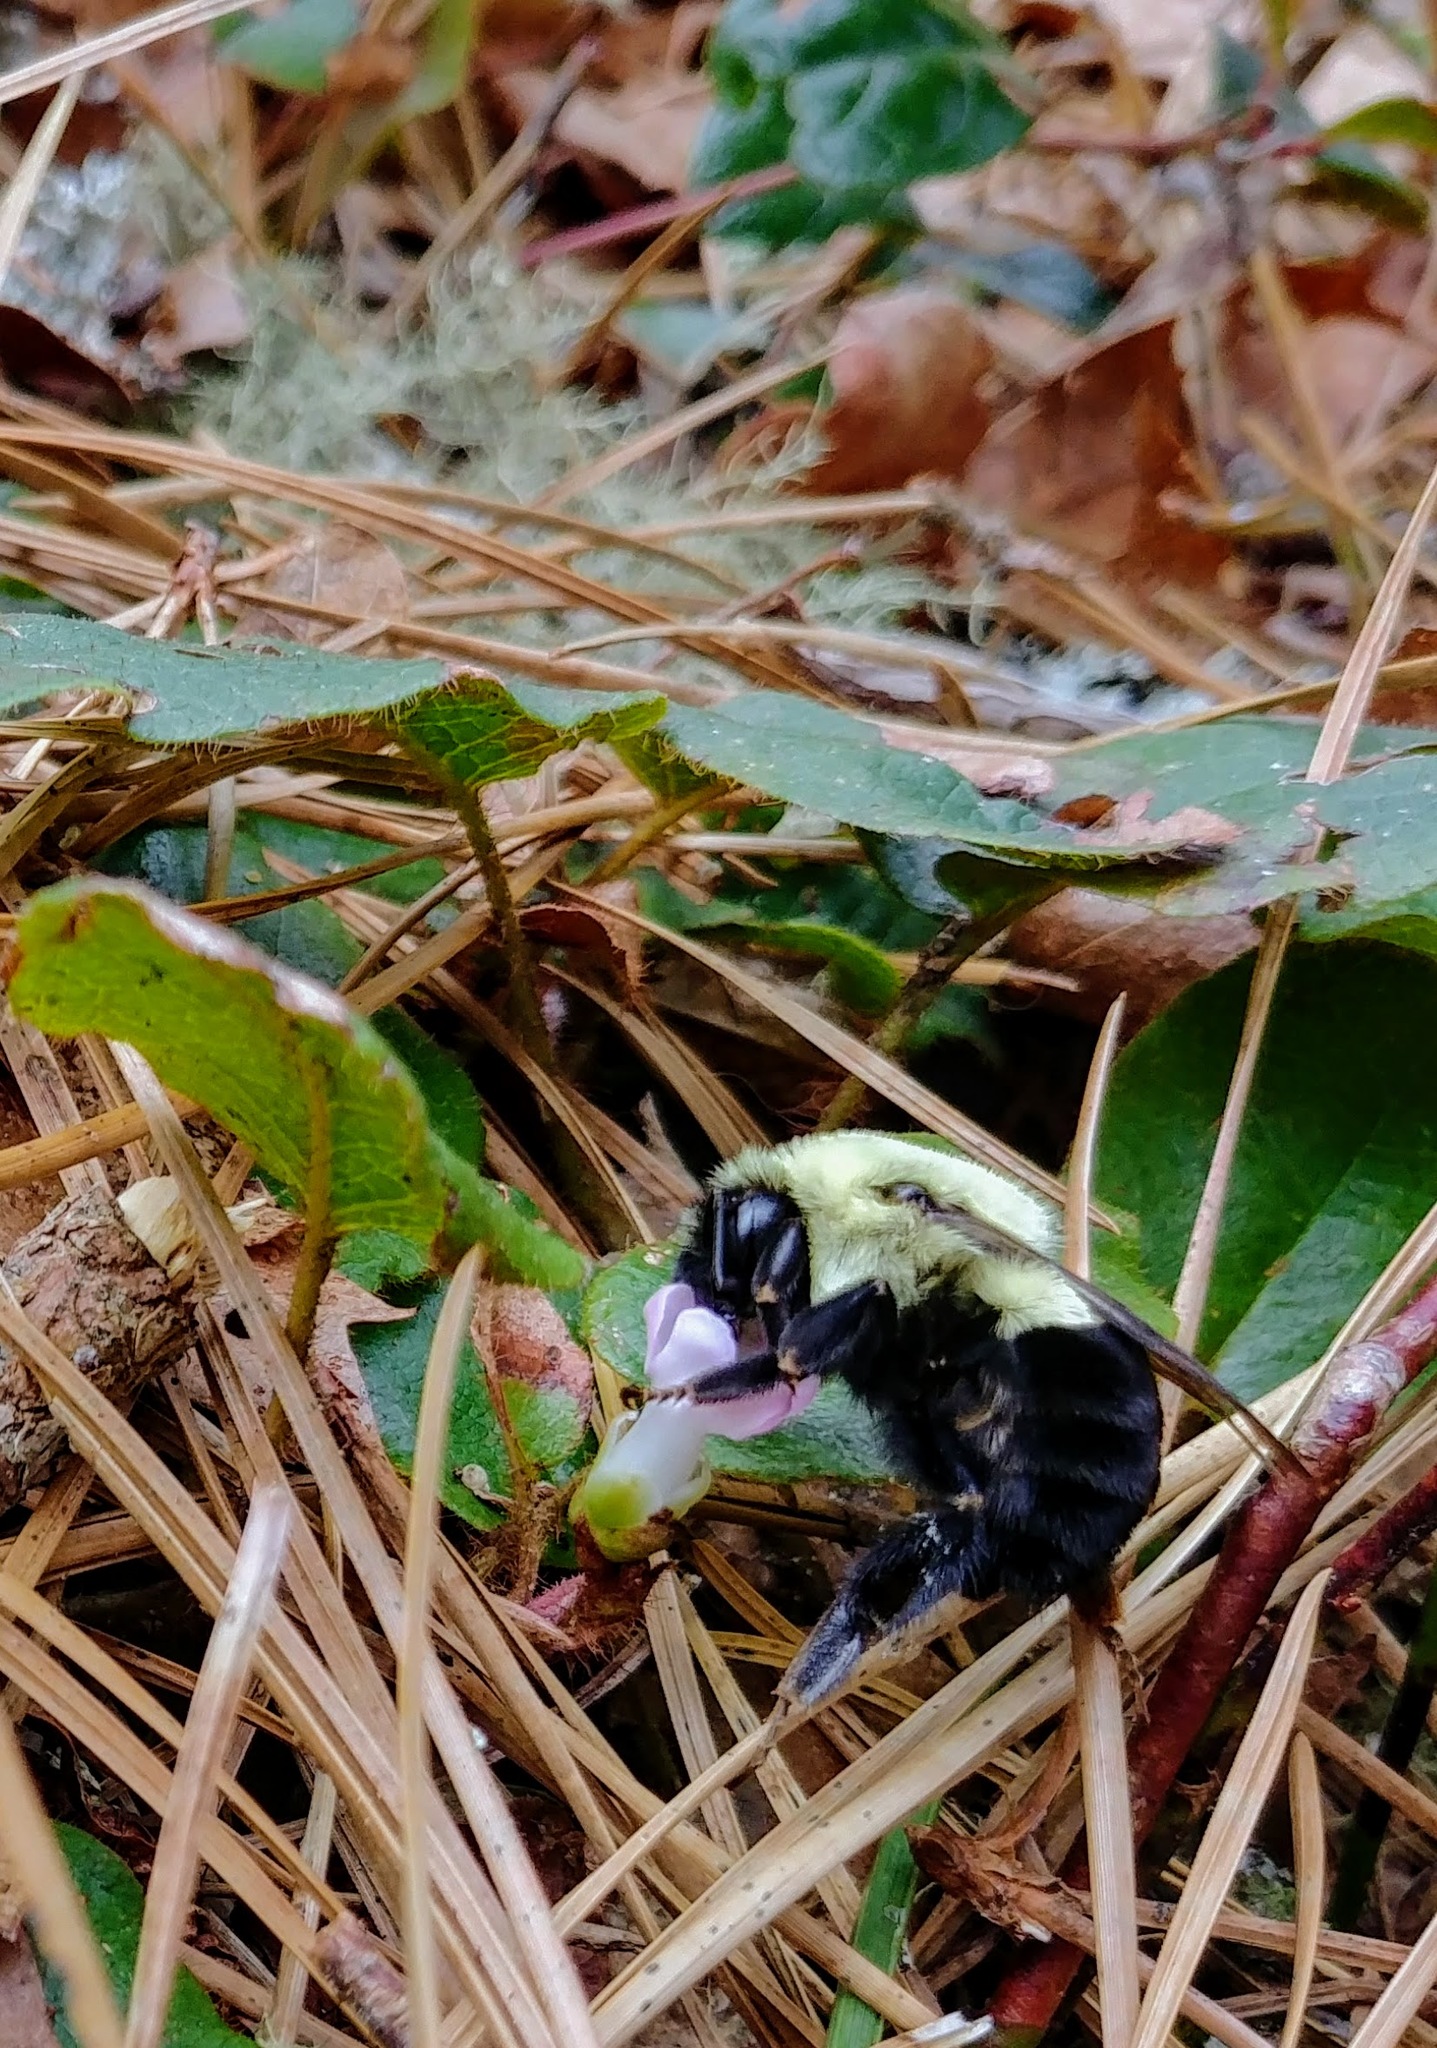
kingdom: Plantae
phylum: Tracheophyta
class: Magnoliopsida
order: Ericales
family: Ericaceae
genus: Epigaea
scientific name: Epigaea repens
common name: Gravelroot
